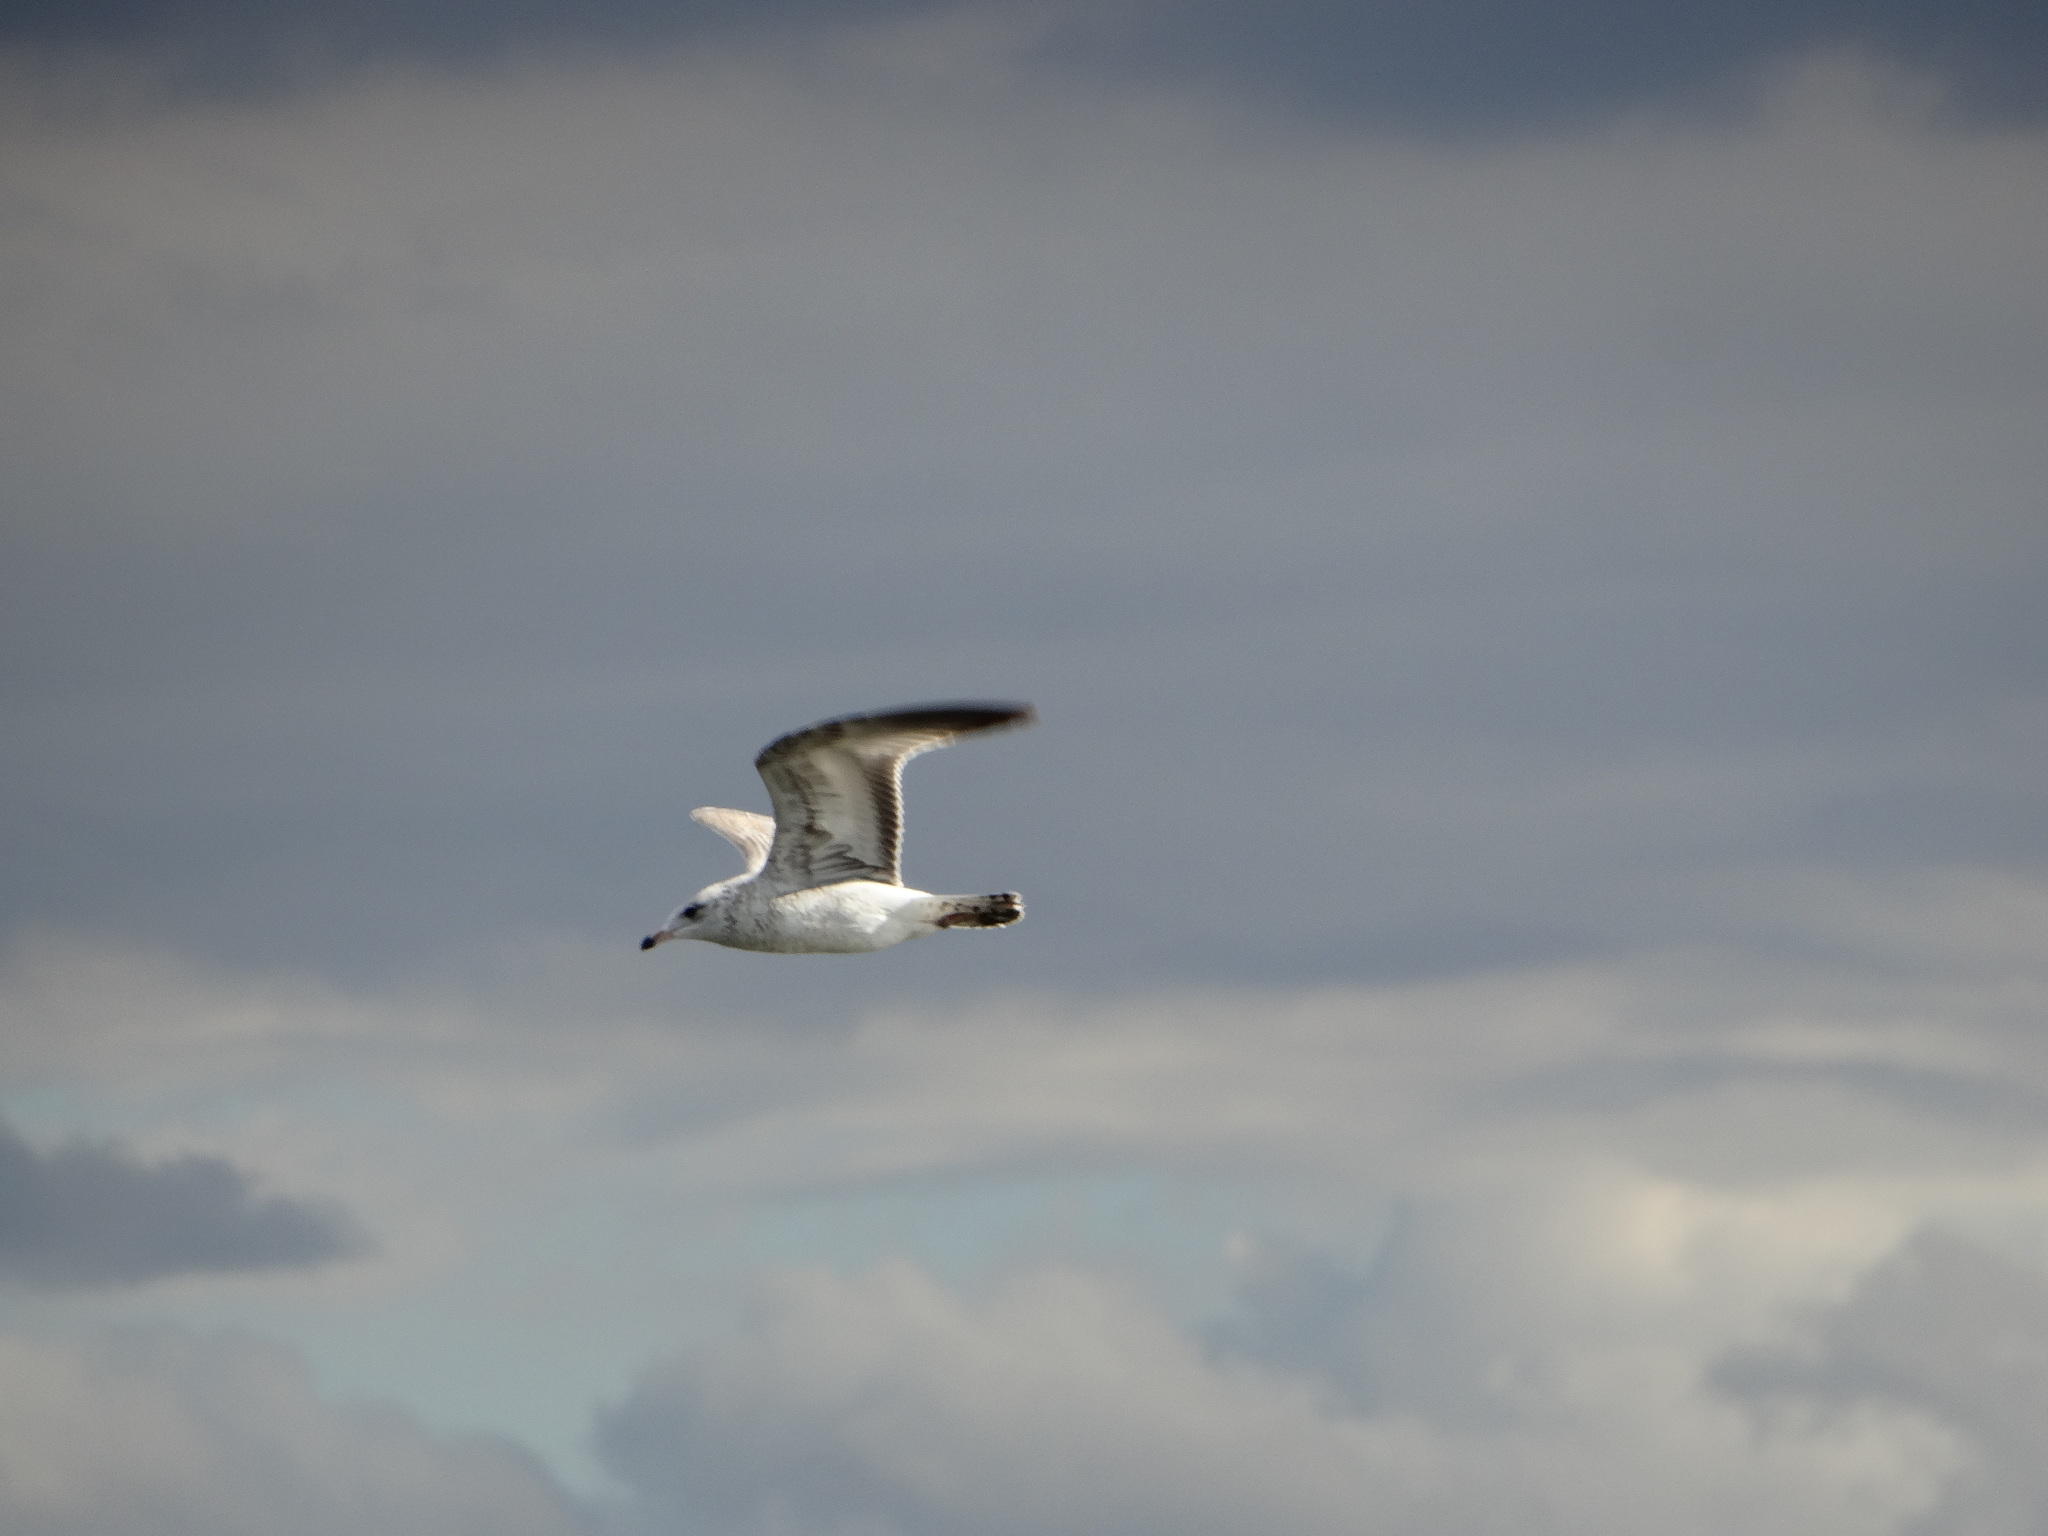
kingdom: Animalia
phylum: Chordata
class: Aves
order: Charadriiformes
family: Laridae
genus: Larus
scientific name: Larus delawarensis
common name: Ring-billed gull
